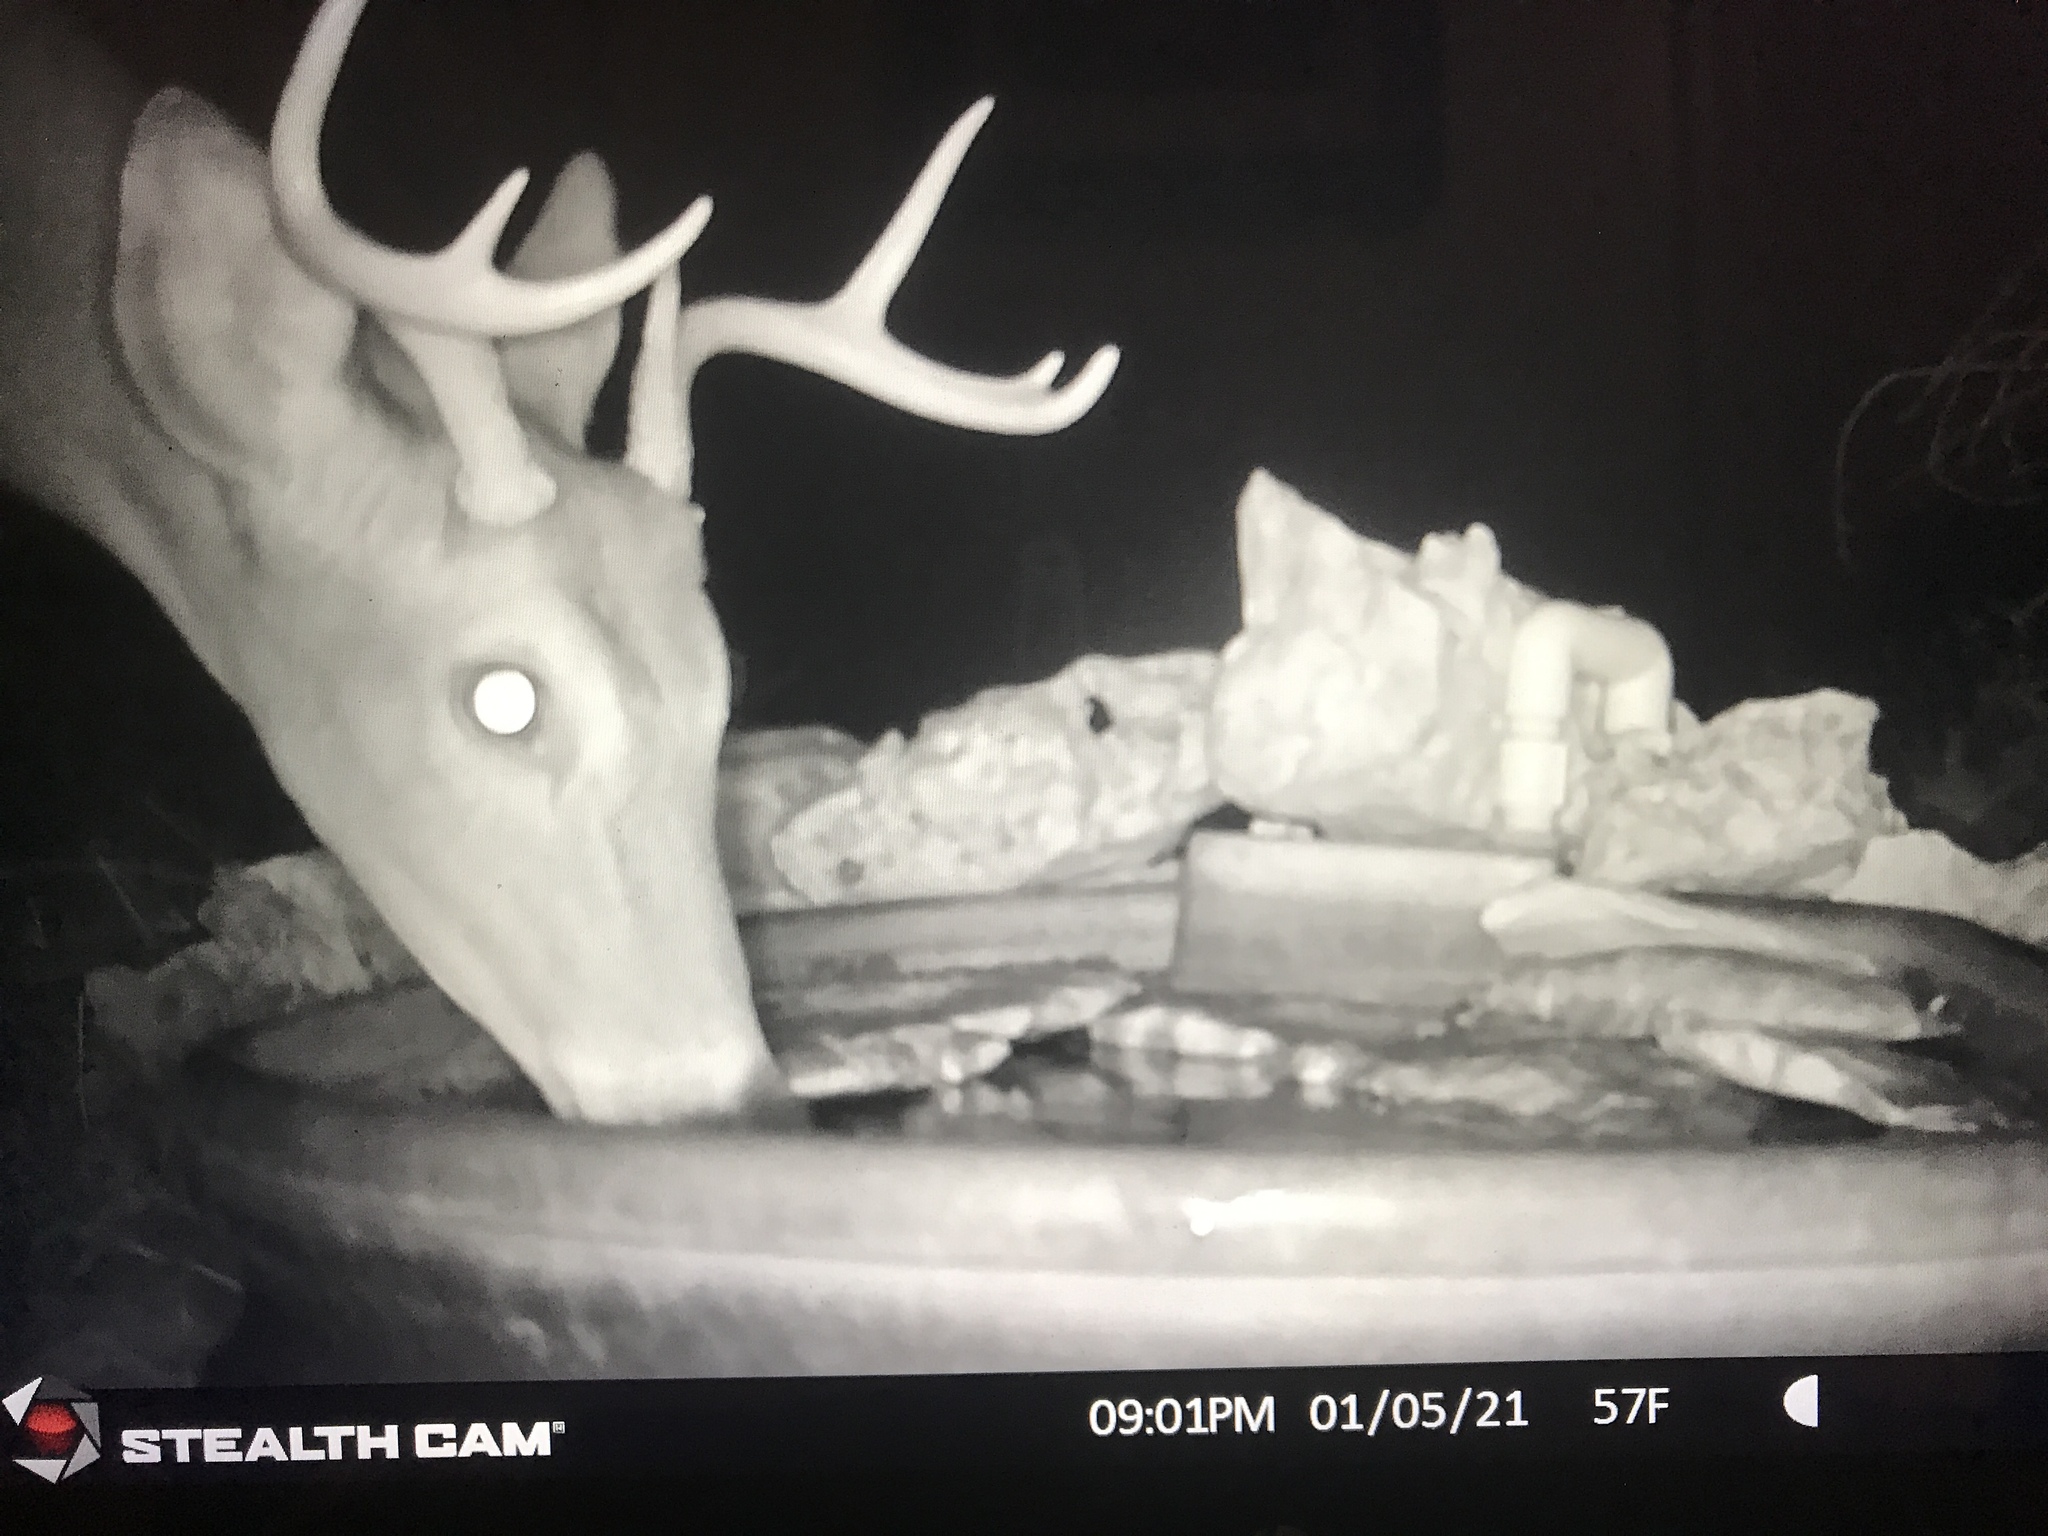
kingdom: Animalia
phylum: Chordata
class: Mammalia
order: Artiodactyla
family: Cervidae
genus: Odocoileus
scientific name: Odocoileus virginianus
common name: White-tailed deer
